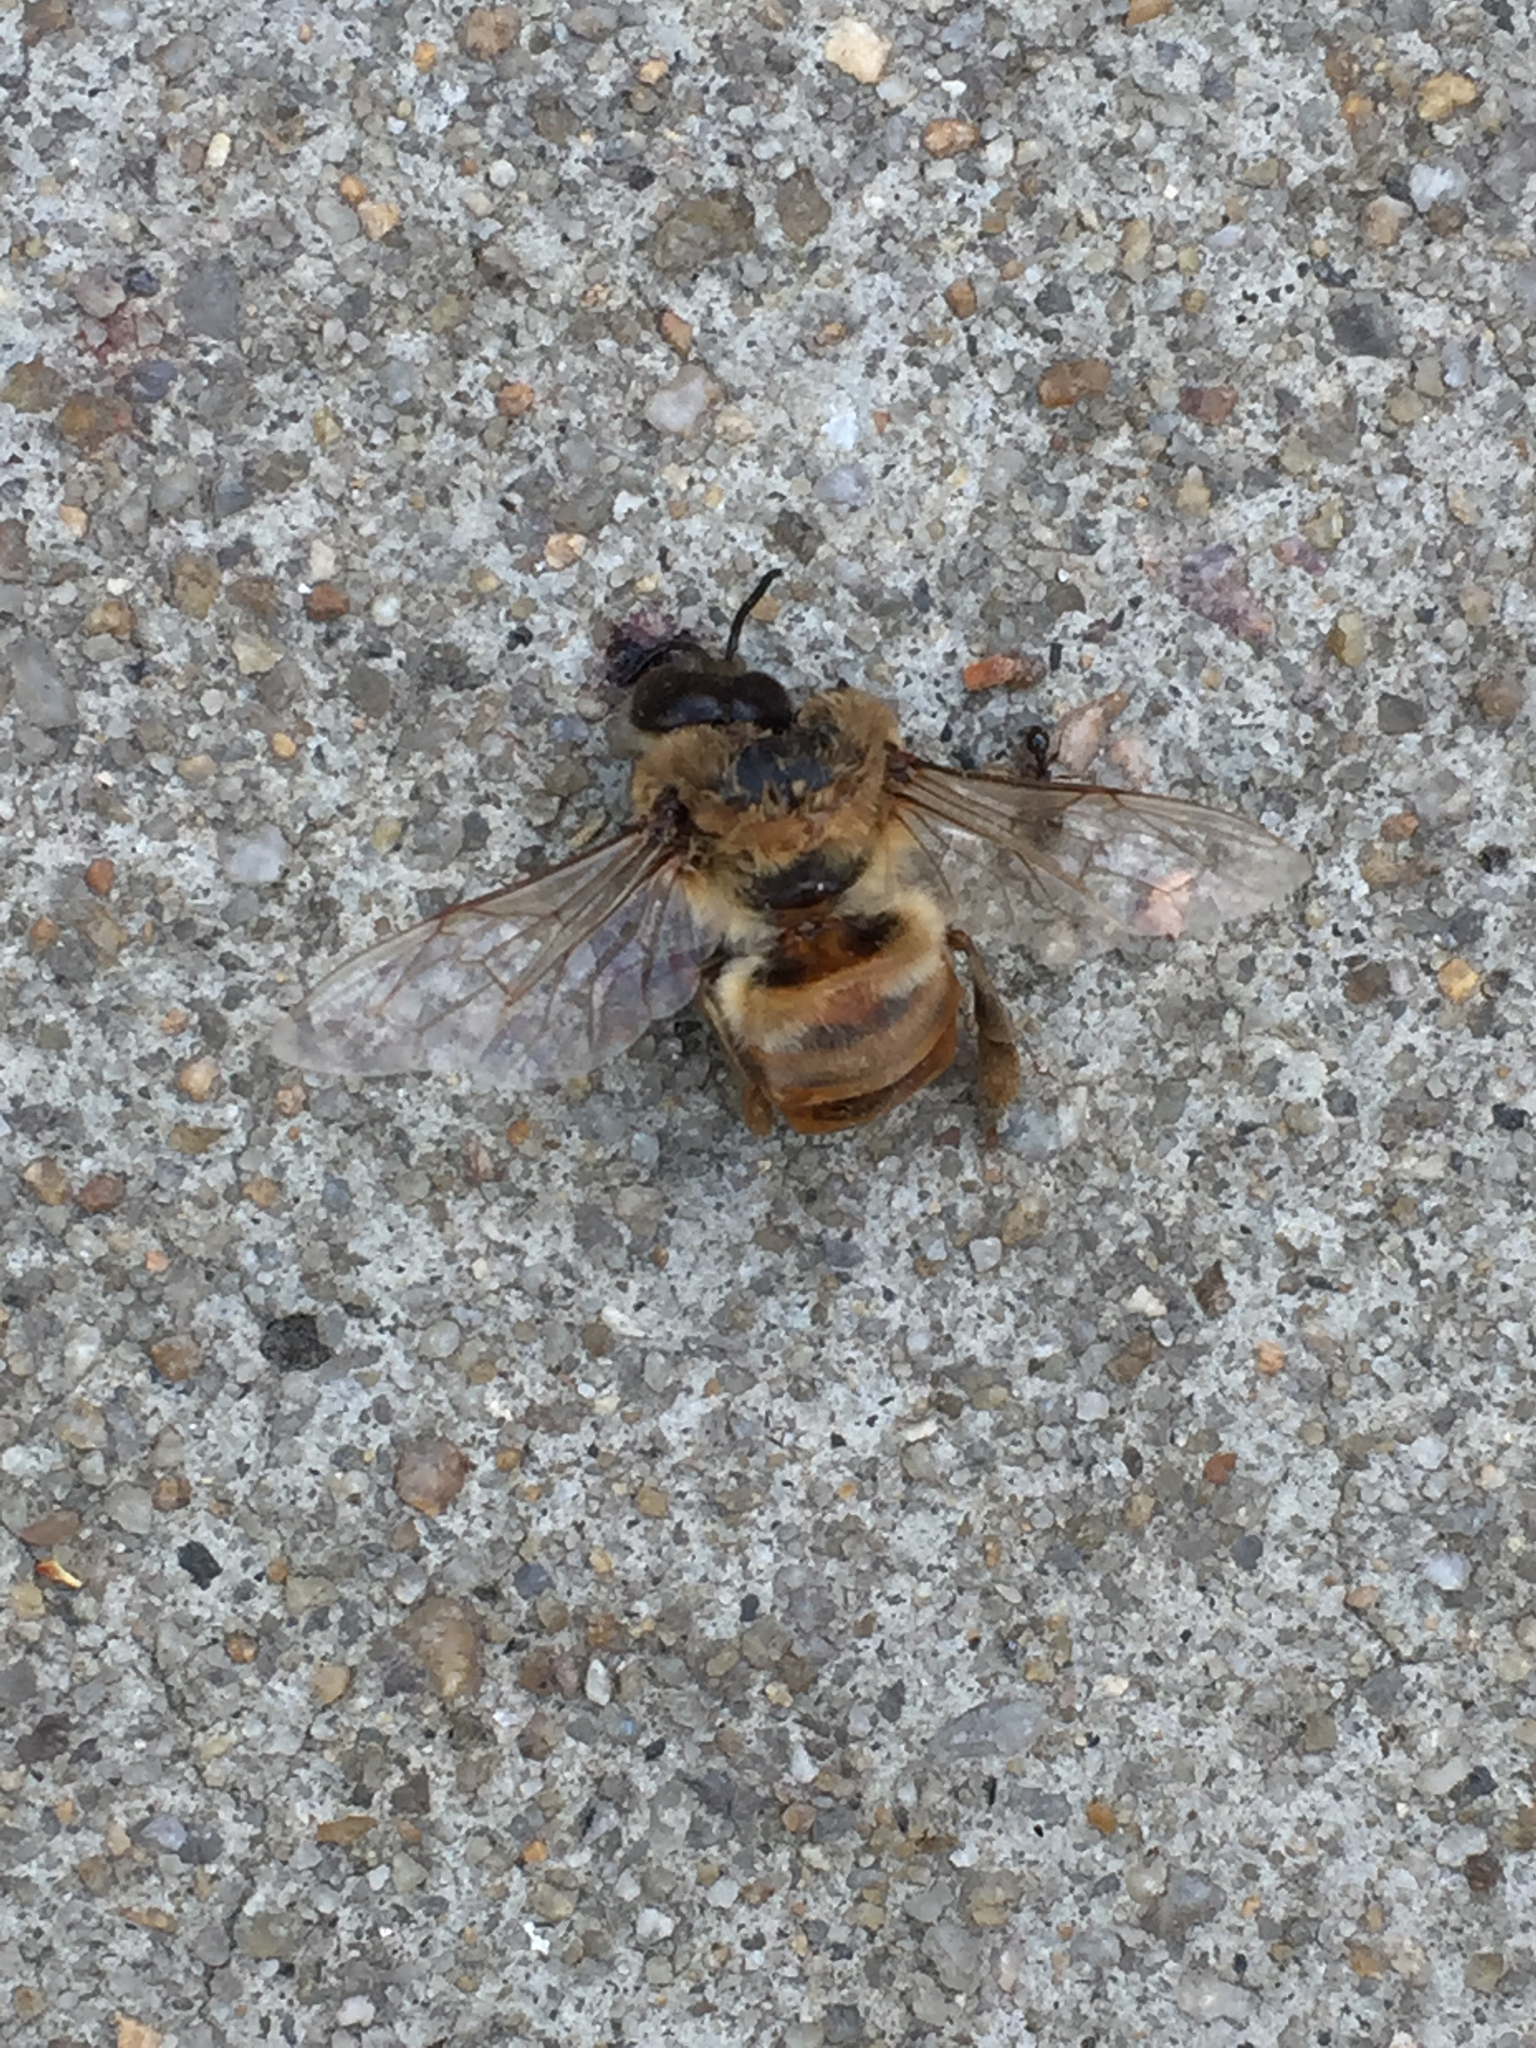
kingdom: Animalia
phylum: Arthropoda
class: Insecta
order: Hymenoptera
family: Apidae
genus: Apis
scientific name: Apis mellifera
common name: Honey bee
